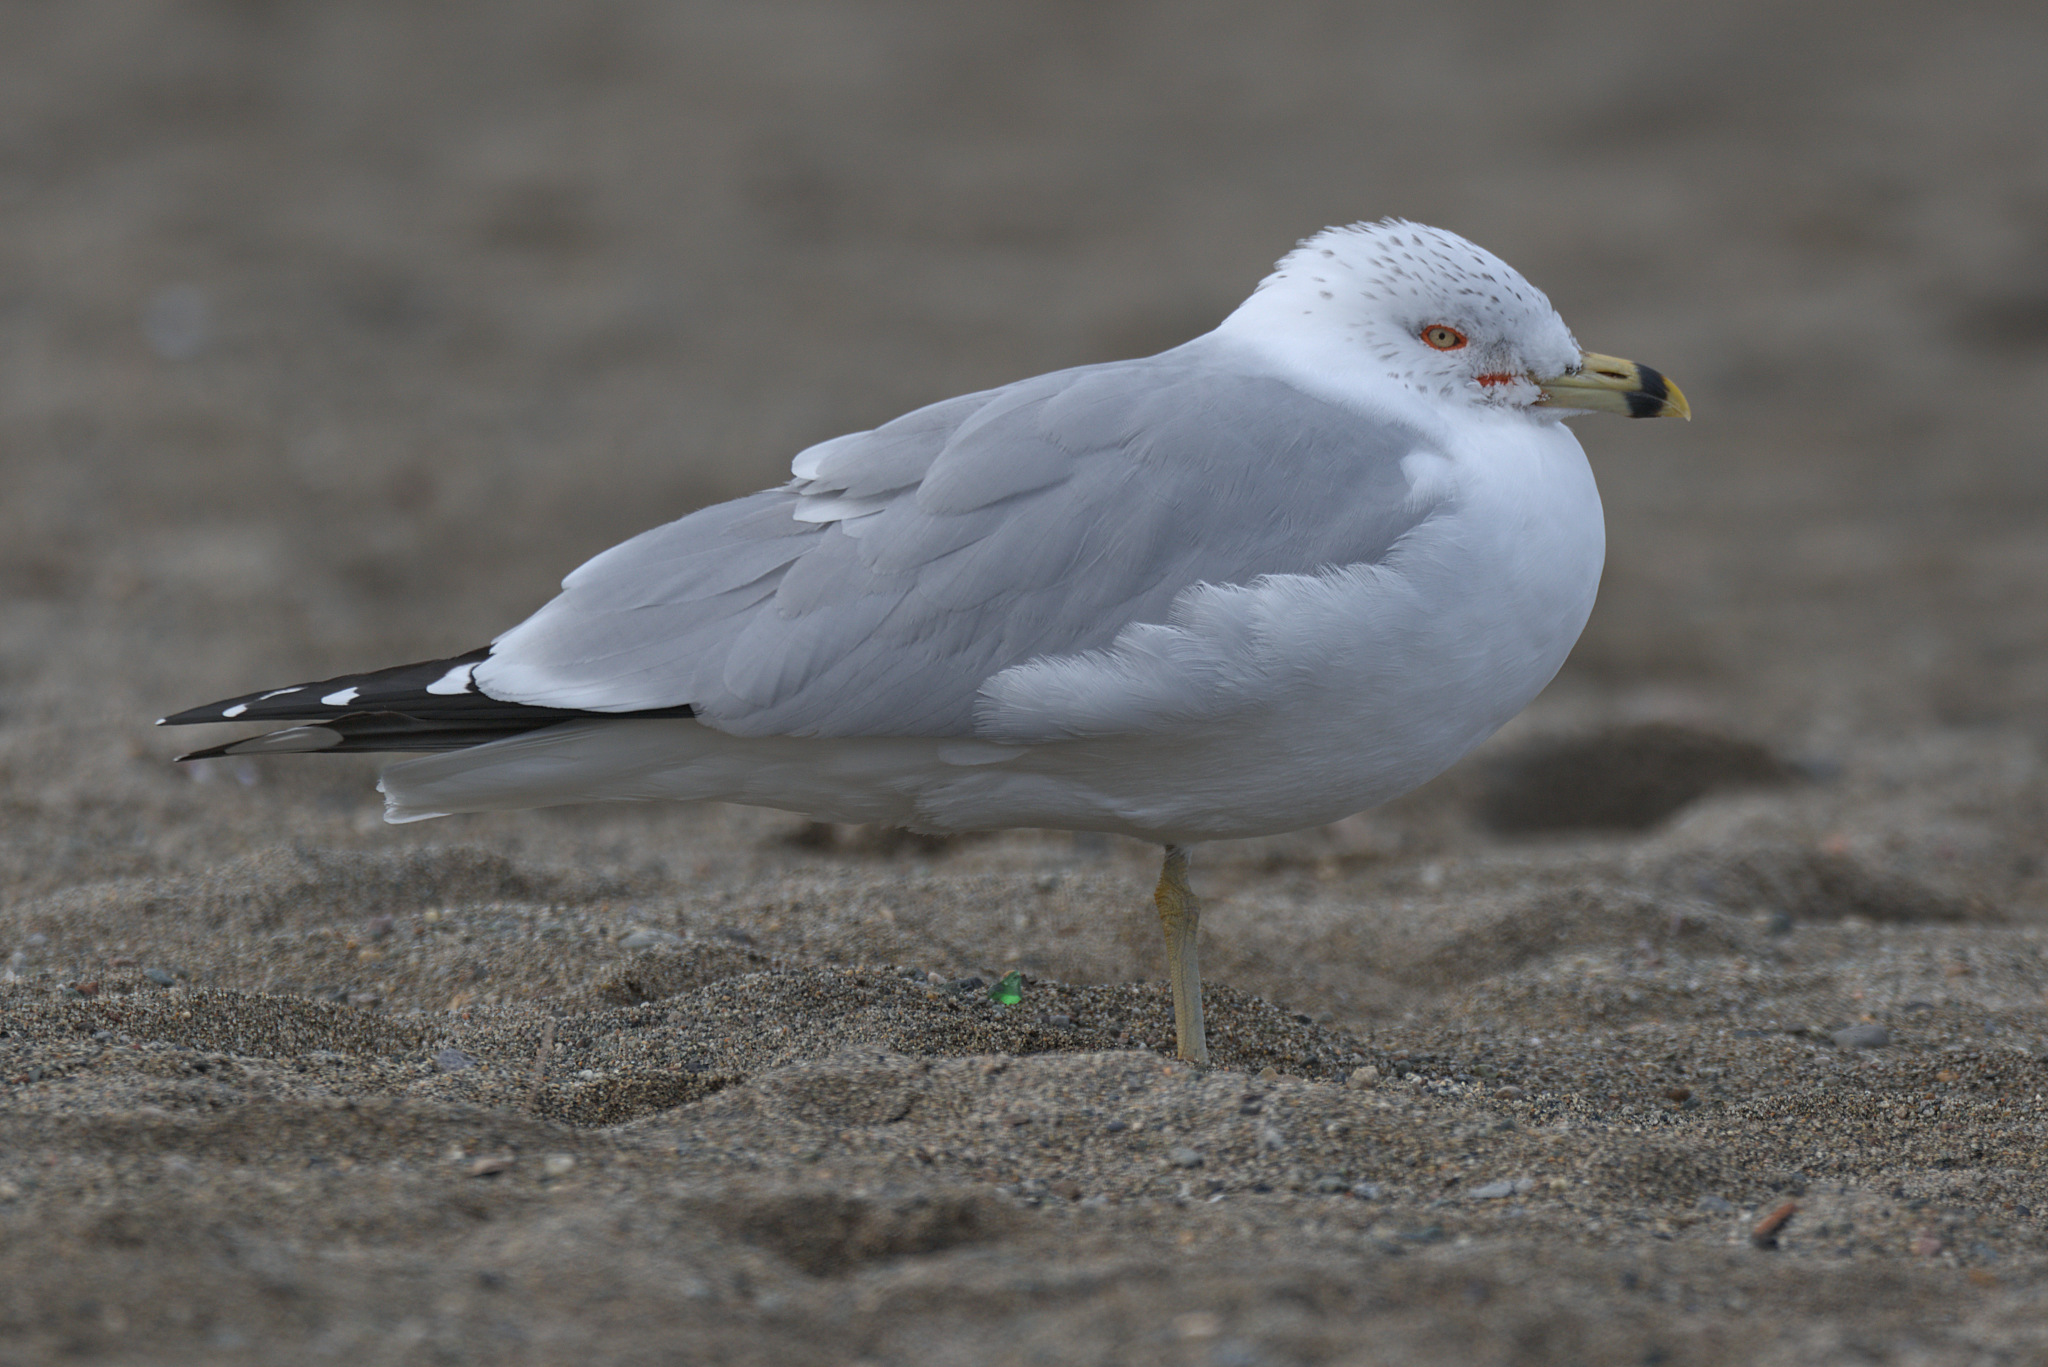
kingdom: Animalia
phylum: Chordata
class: Aves
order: Charadriiformes
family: Laridae
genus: Larus
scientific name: Larus delawarensis
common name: Ring-billed gull
